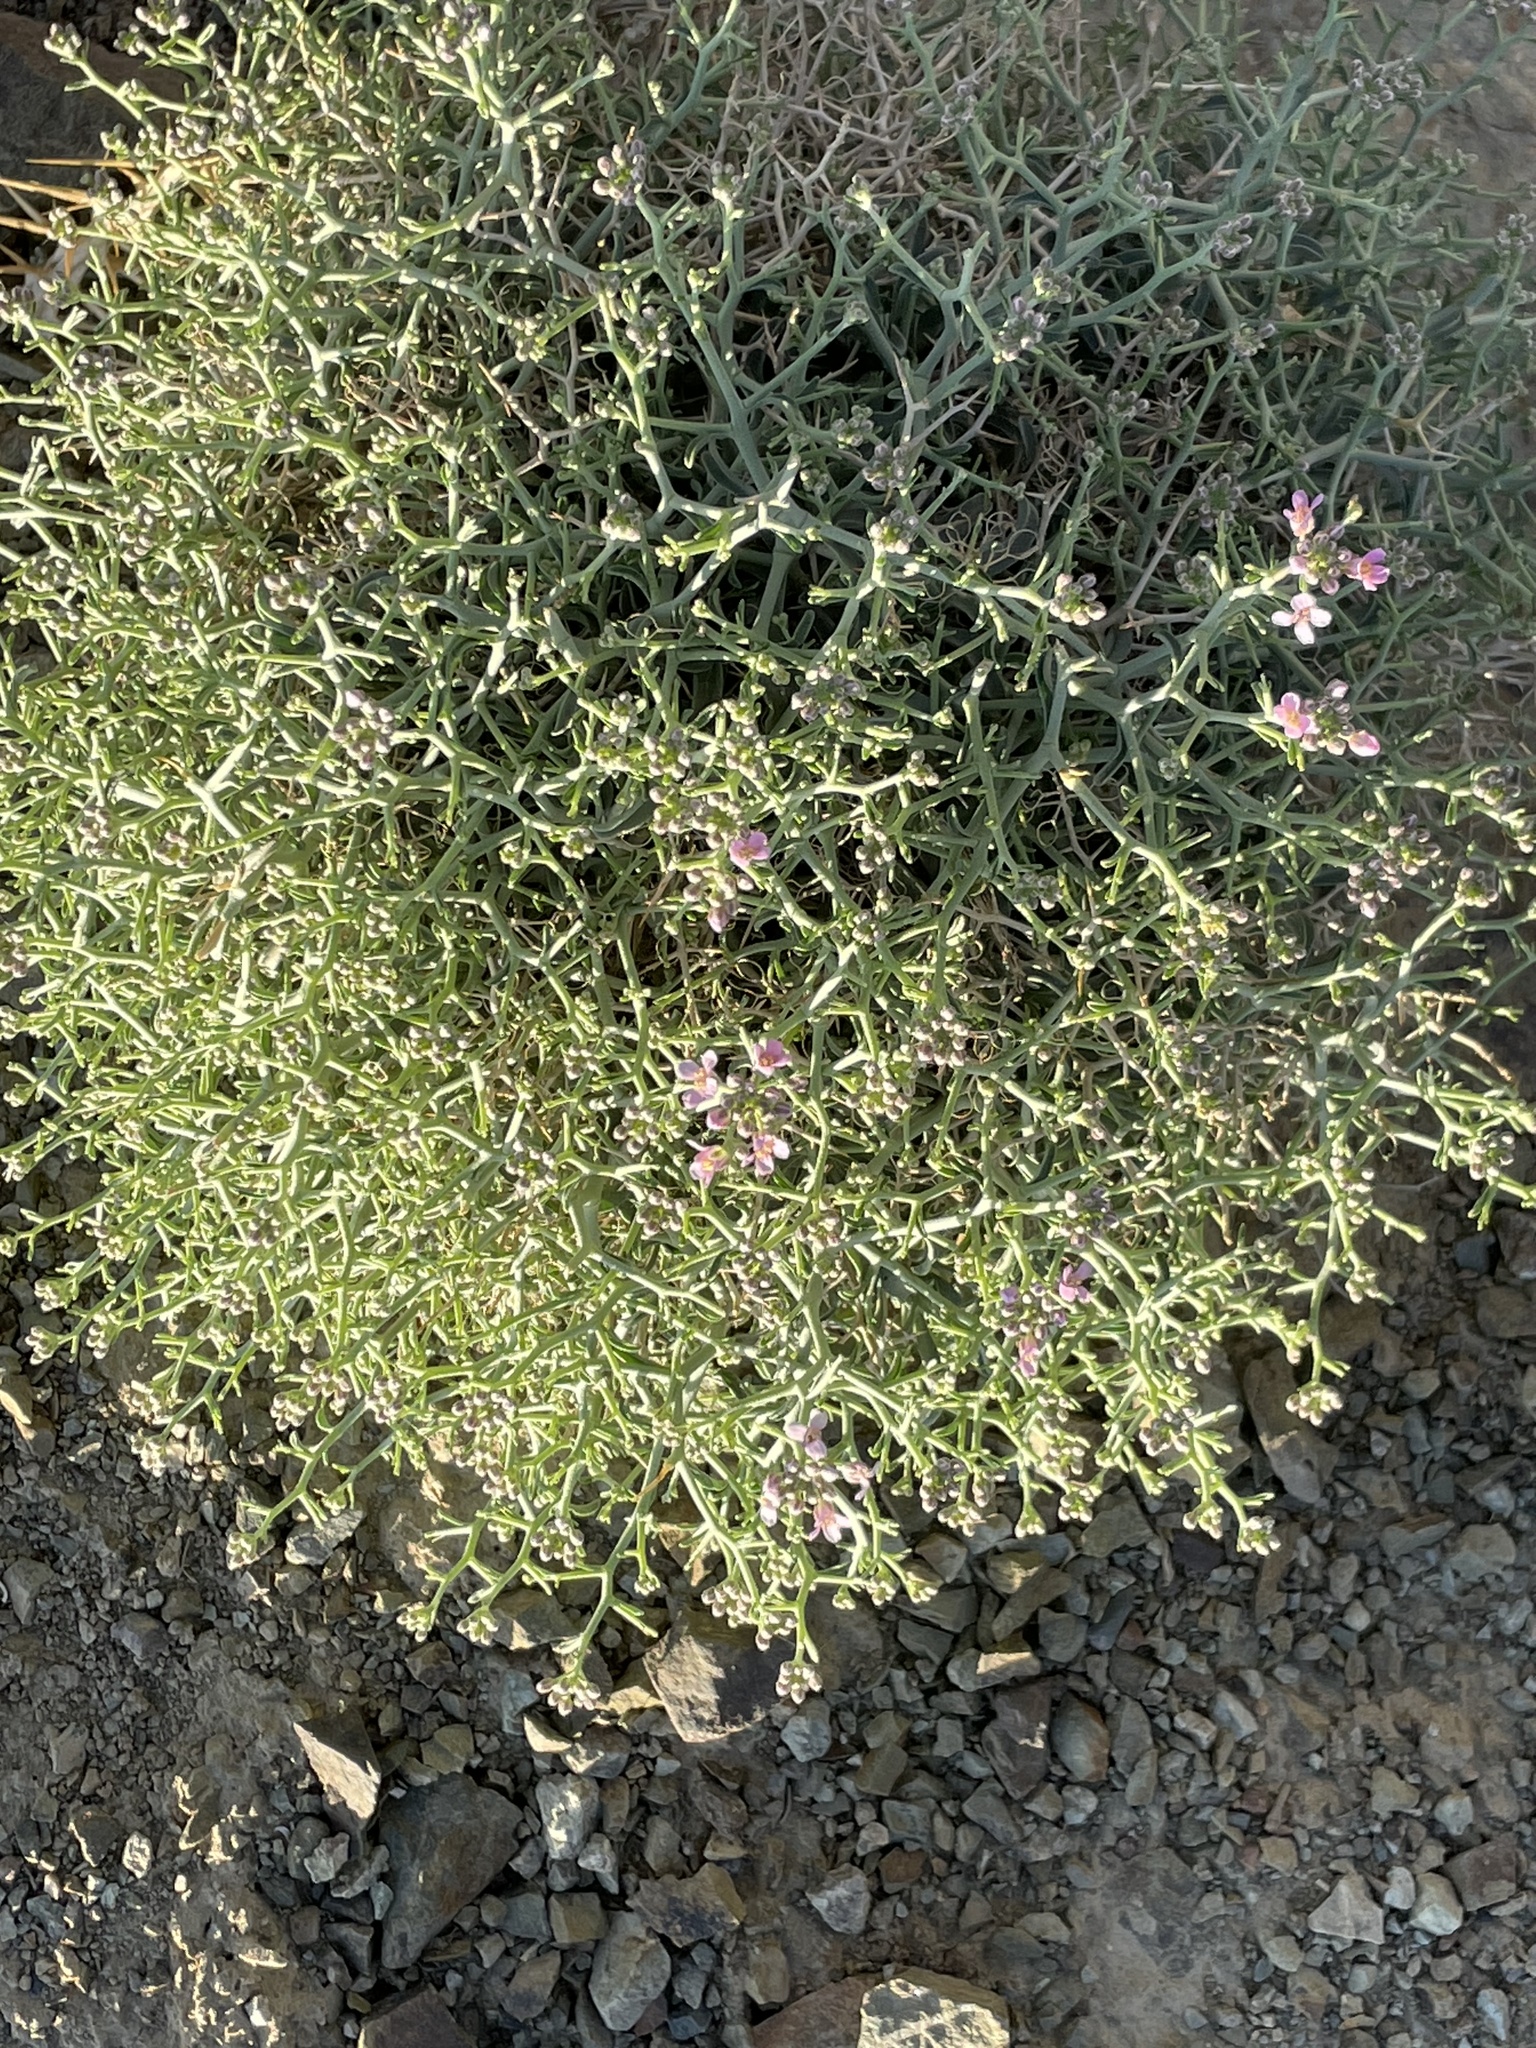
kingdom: Plantae
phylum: Tracheophyta
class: Magnoliopsida
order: Brassicales
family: Brassicaceae
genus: Hormathophylla
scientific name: Hormathophylla spinosa
